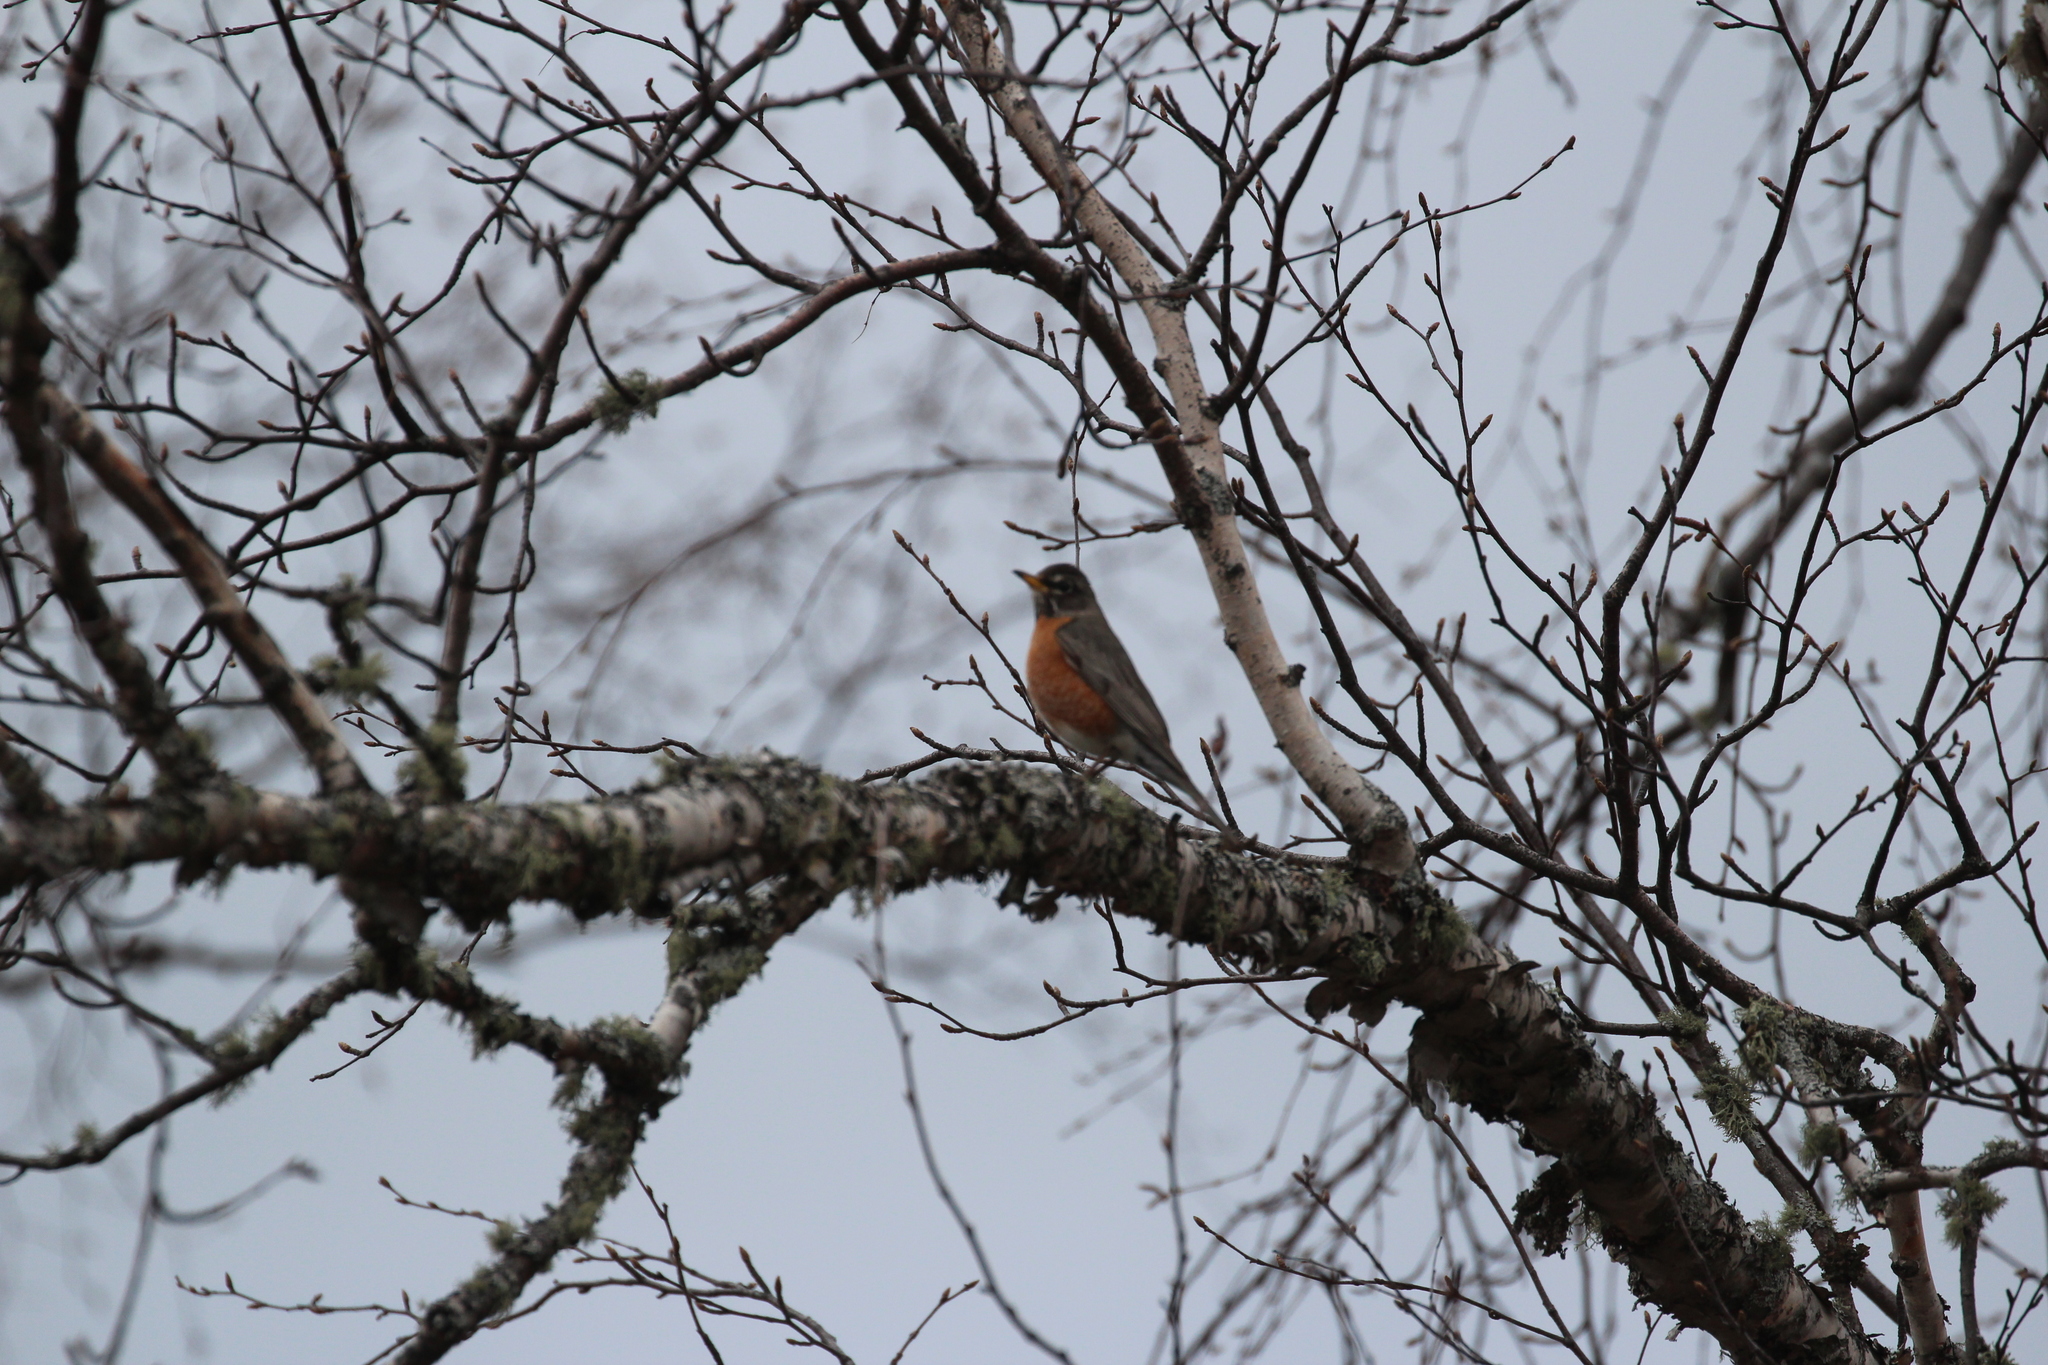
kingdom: Animalia
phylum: Chordata
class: Aves
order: Passeriformes
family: Turdidae
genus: Turdus
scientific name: Turdus migratorius
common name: American robin
